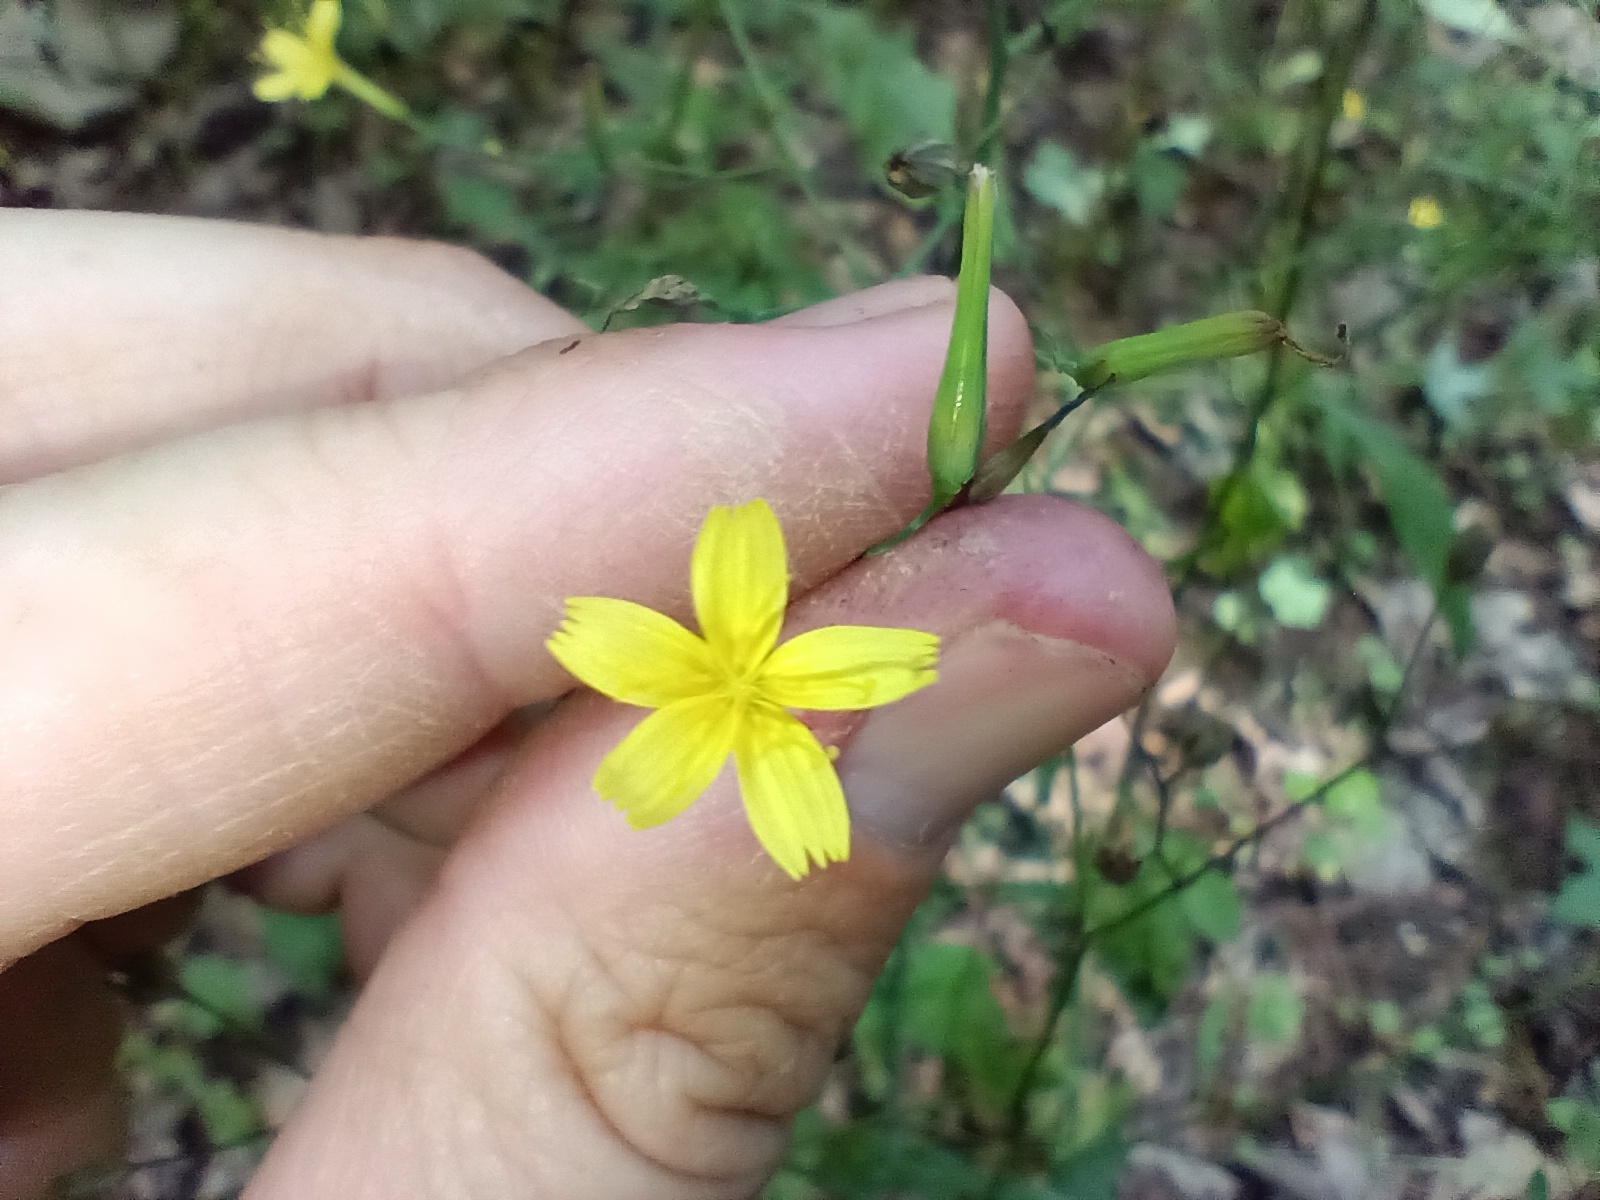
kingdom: Plantae
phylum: Tracheophyta
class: Magnoliopsida
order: Asterales
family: Asteraceae
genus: Mycelis
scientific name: Mycelis muralis
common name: Wall lettuce
